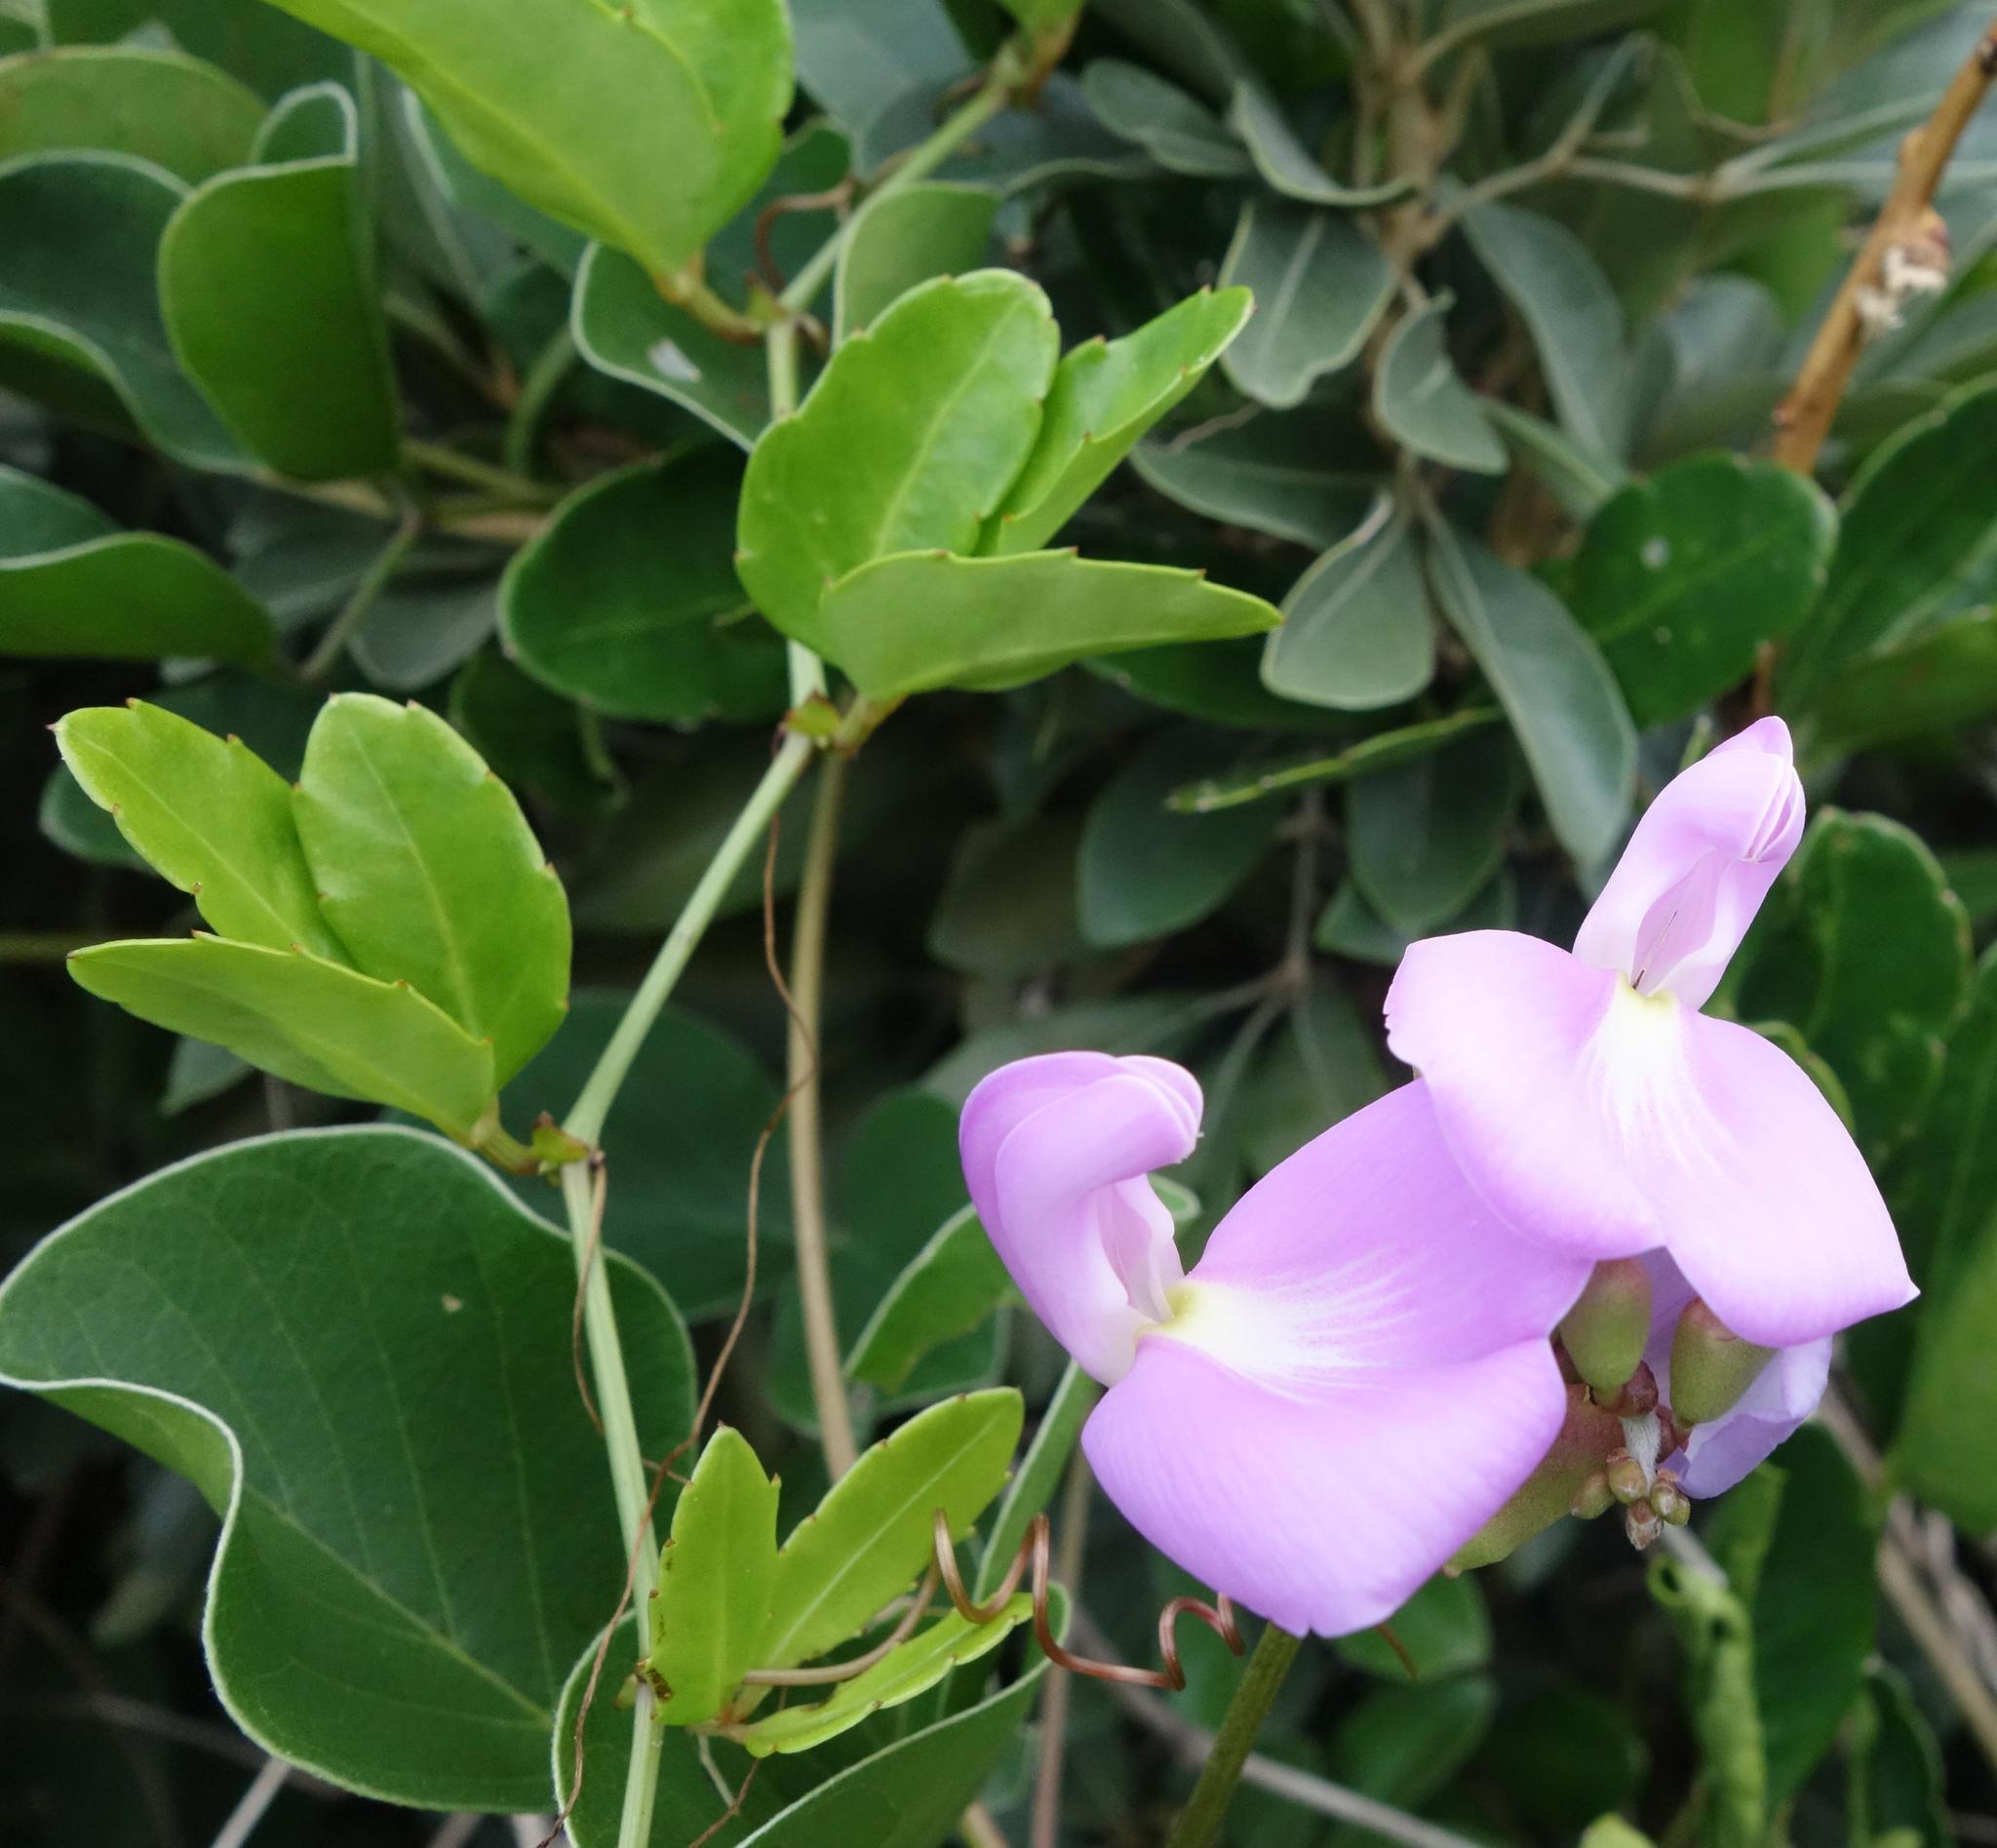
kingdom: Plantae
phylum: Tracheophyta
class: Magnoliopsida
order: Fabales
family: Fabaceae
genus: Canavalia
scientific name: Canavalia rosea
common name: Beach-bean
